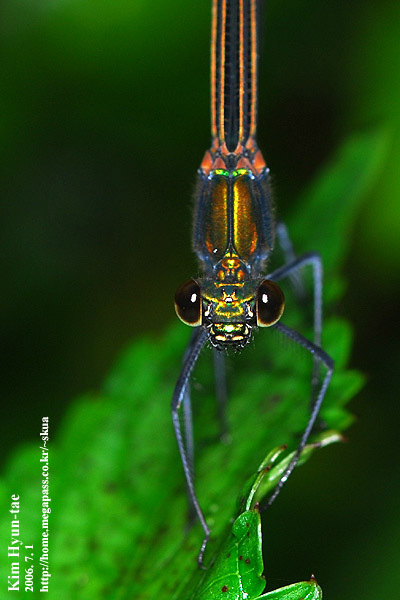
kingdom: Animalia
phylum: Arthropoda
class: Insecta
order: Odonata
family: Calopterygidae
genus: Calopteryx
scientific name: Calopteryx japonica
